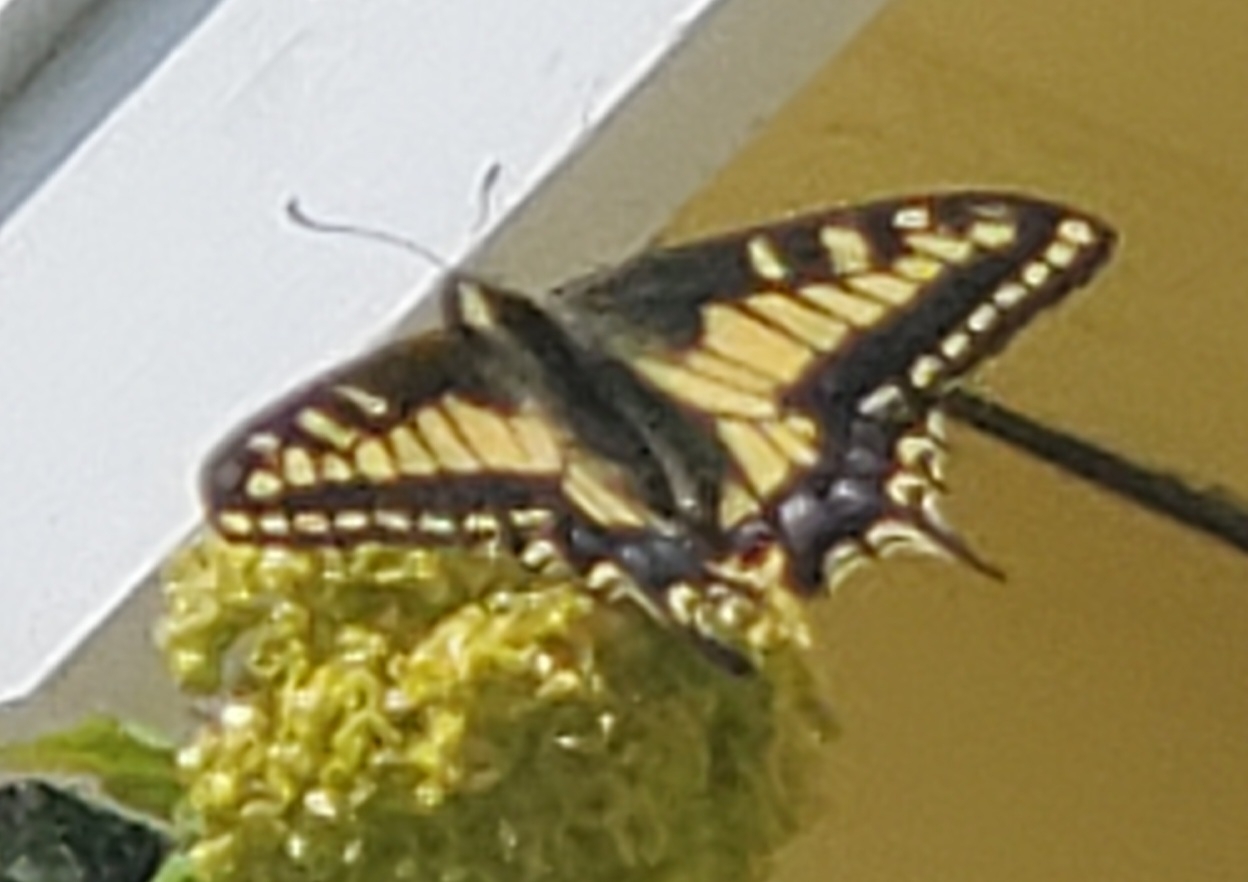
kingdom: Animalia
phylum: Arthropoda
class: Insecta
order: Lepidoptera
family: Papilionidae
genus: Papilio
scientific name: Papilio zelicaon
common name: Anise swallowtail
